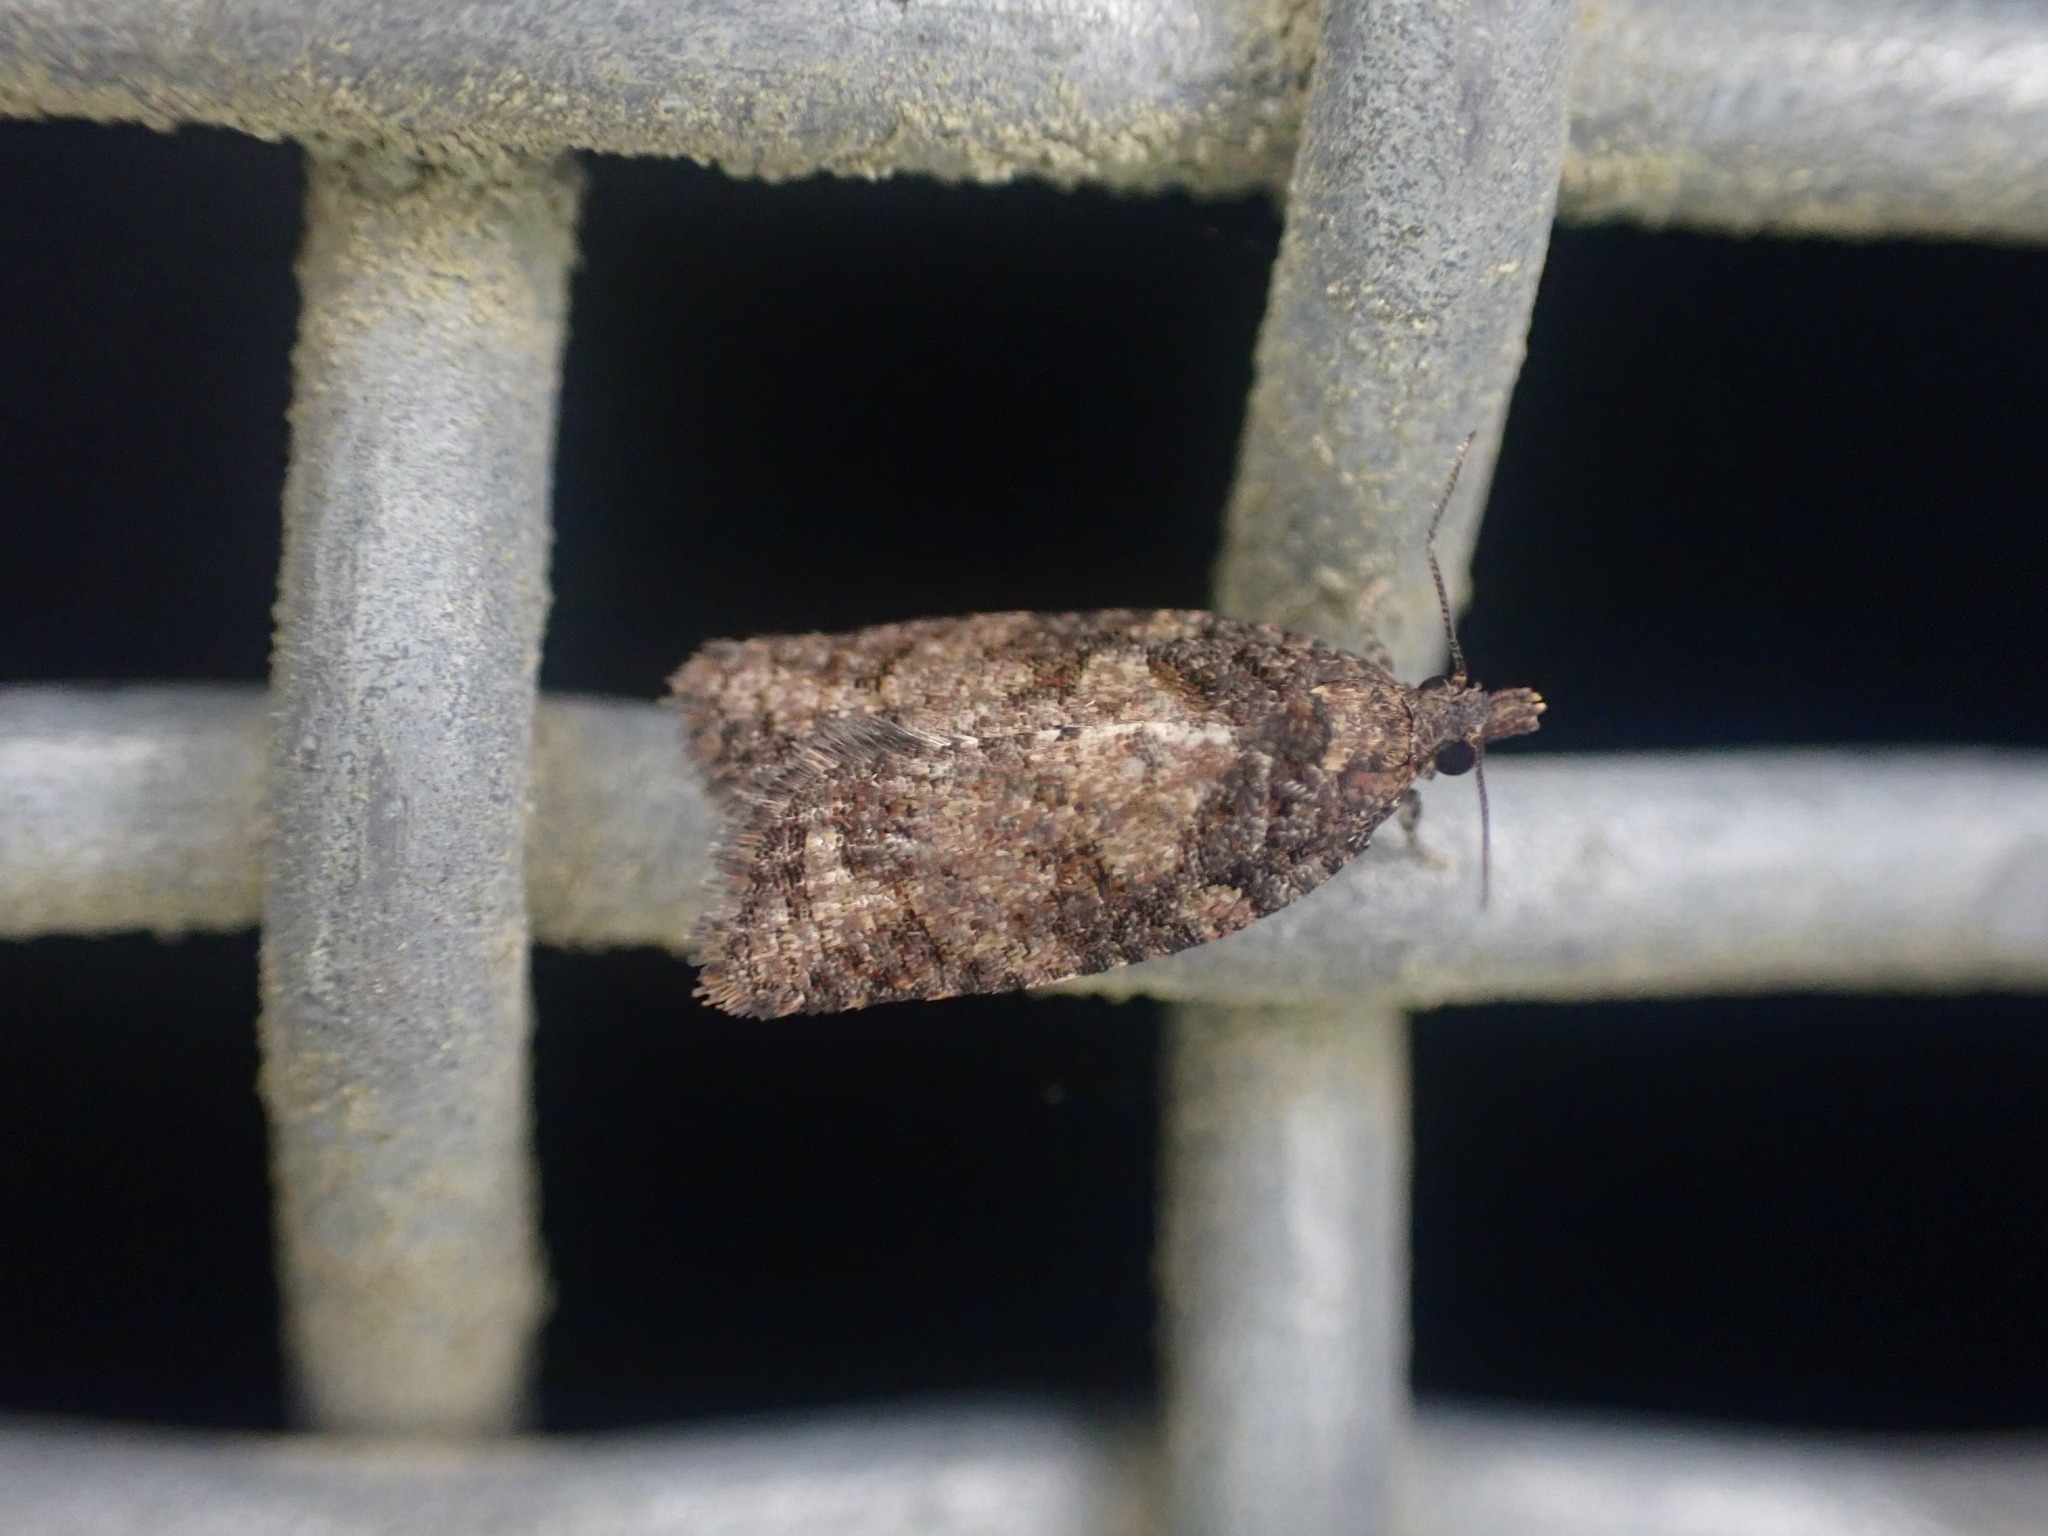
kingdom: Animalia
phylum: Arthropoda
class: Insecta
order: Lepidoptera
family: Tortricidae
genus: Capua
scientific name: Capua intractana
